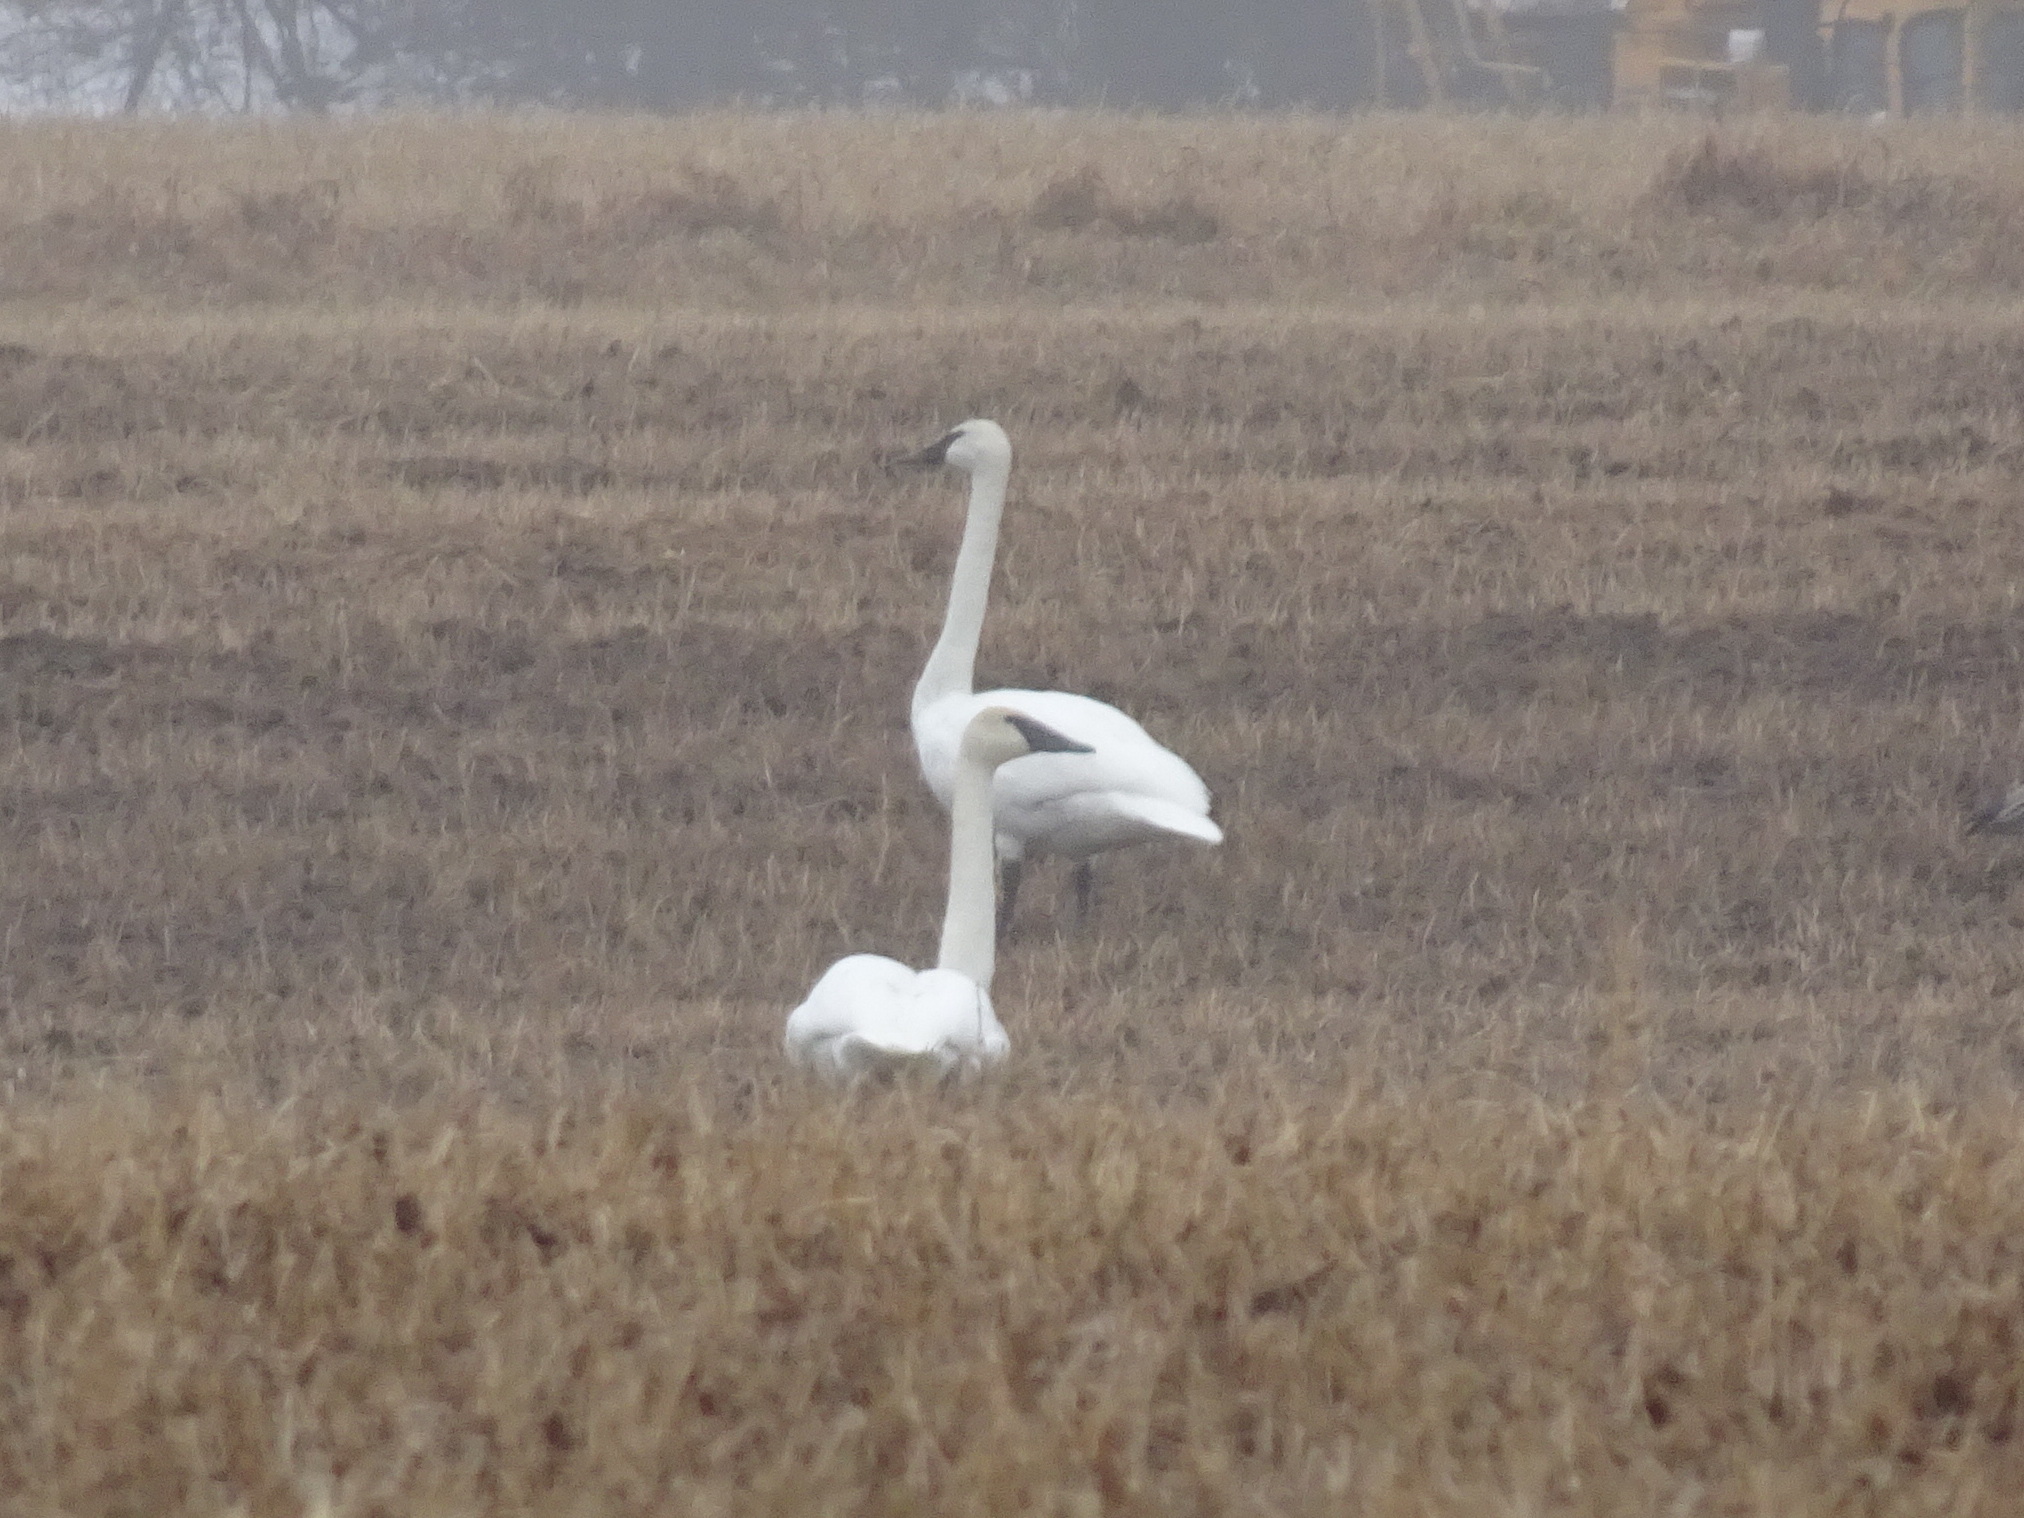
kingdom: Animalia
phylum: Chordata
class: Aves
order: Anseriformes
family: Anatidae
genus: Cygnus
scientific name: Cygnus buccinator
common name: Trumpeter swan
